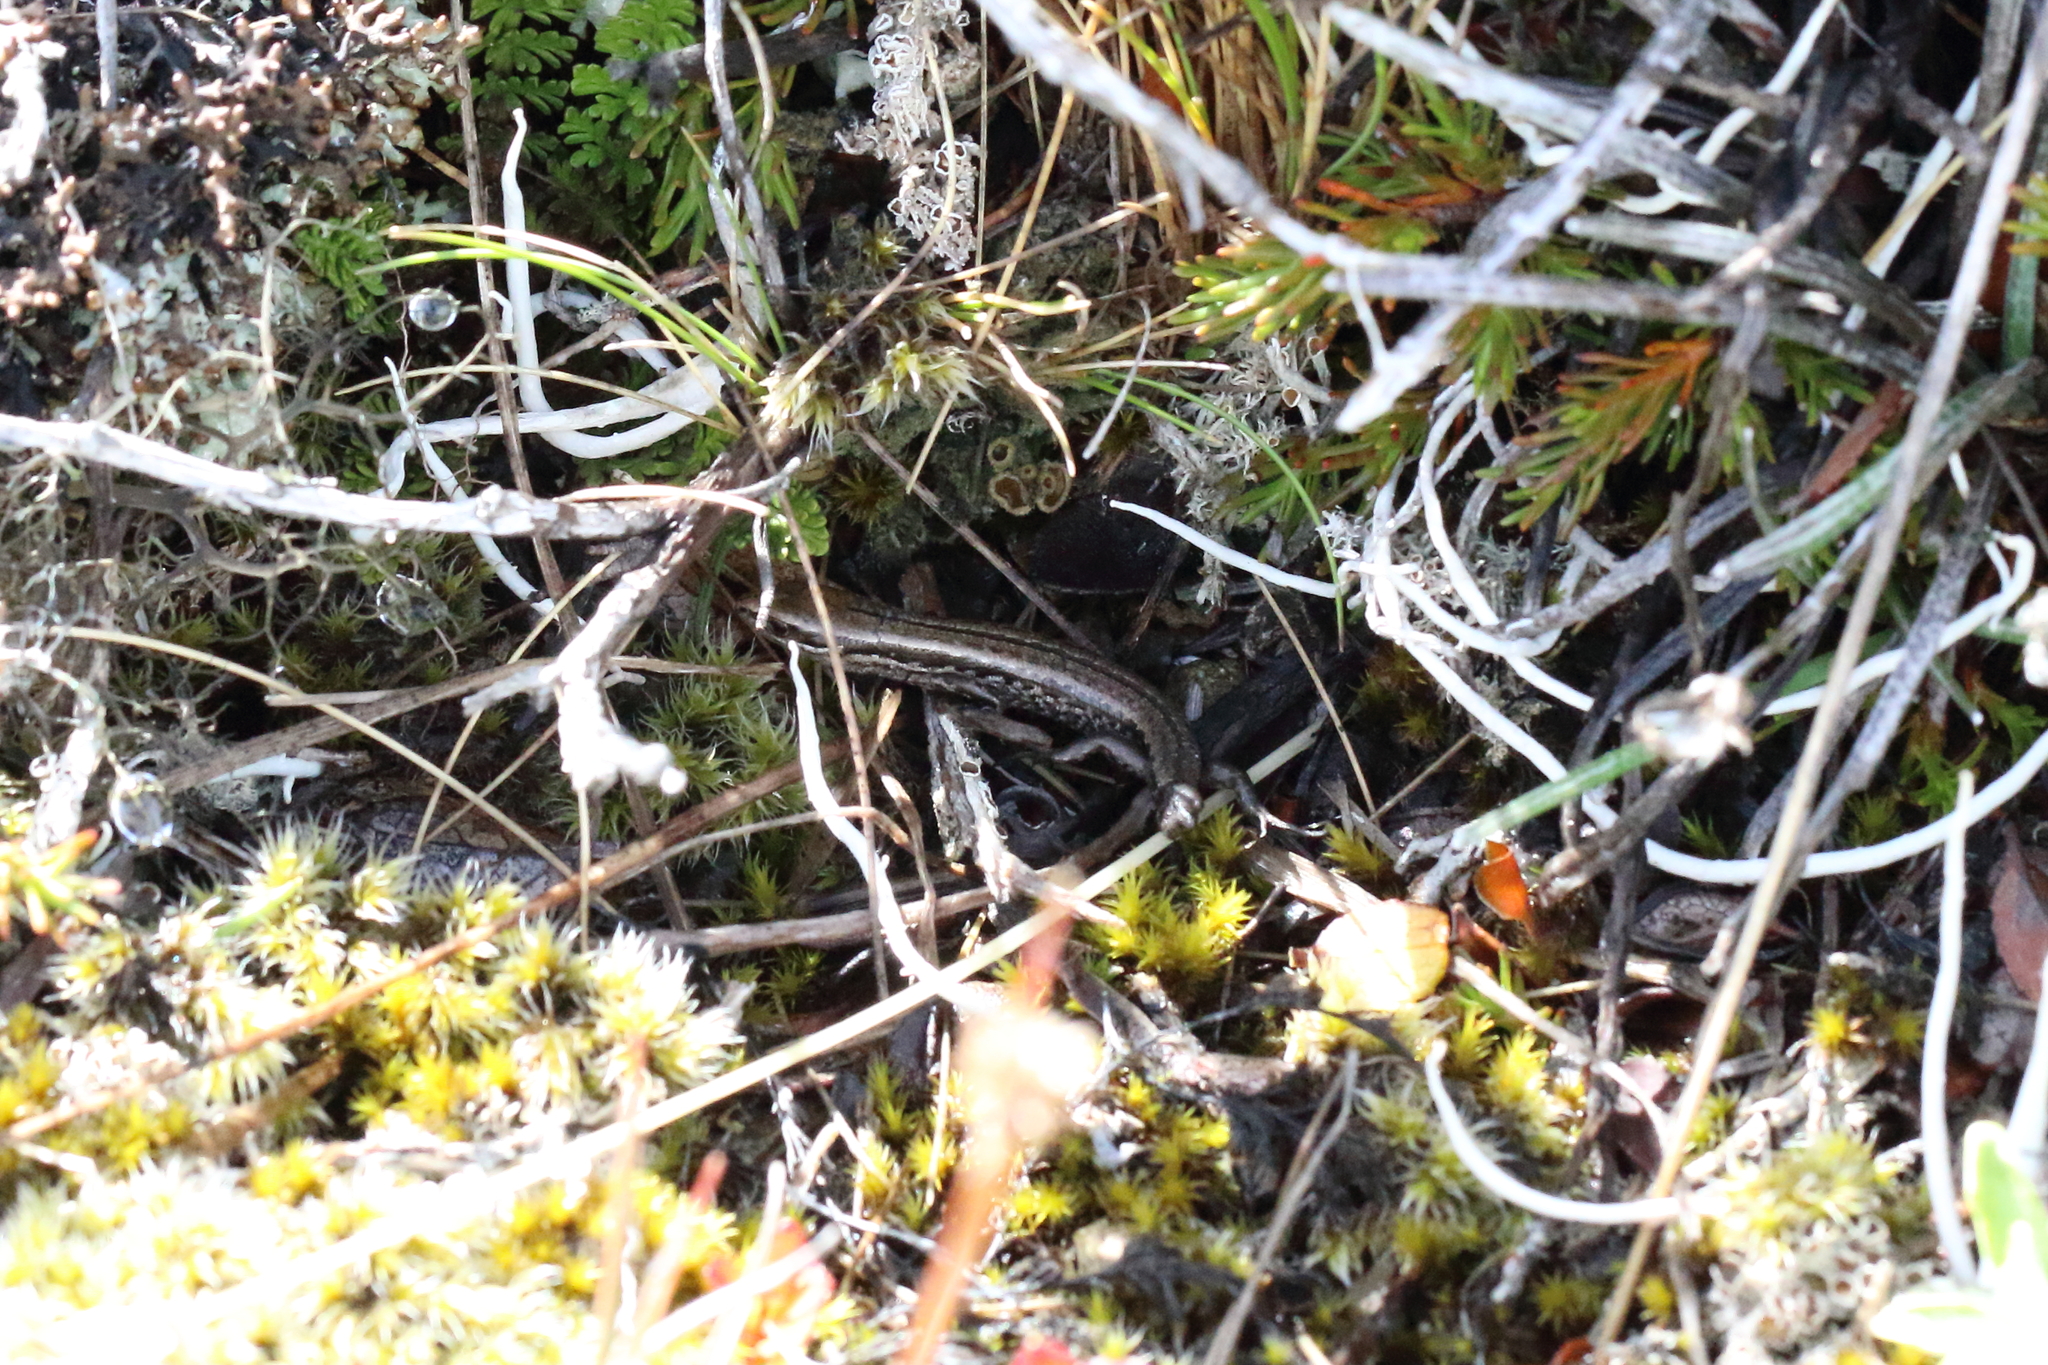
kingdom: Animalia
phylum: Chordata
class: Squamata
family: Scincidae
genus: Oligosoma
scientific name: Oligosoma maccanni
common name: Mccann’s skink
